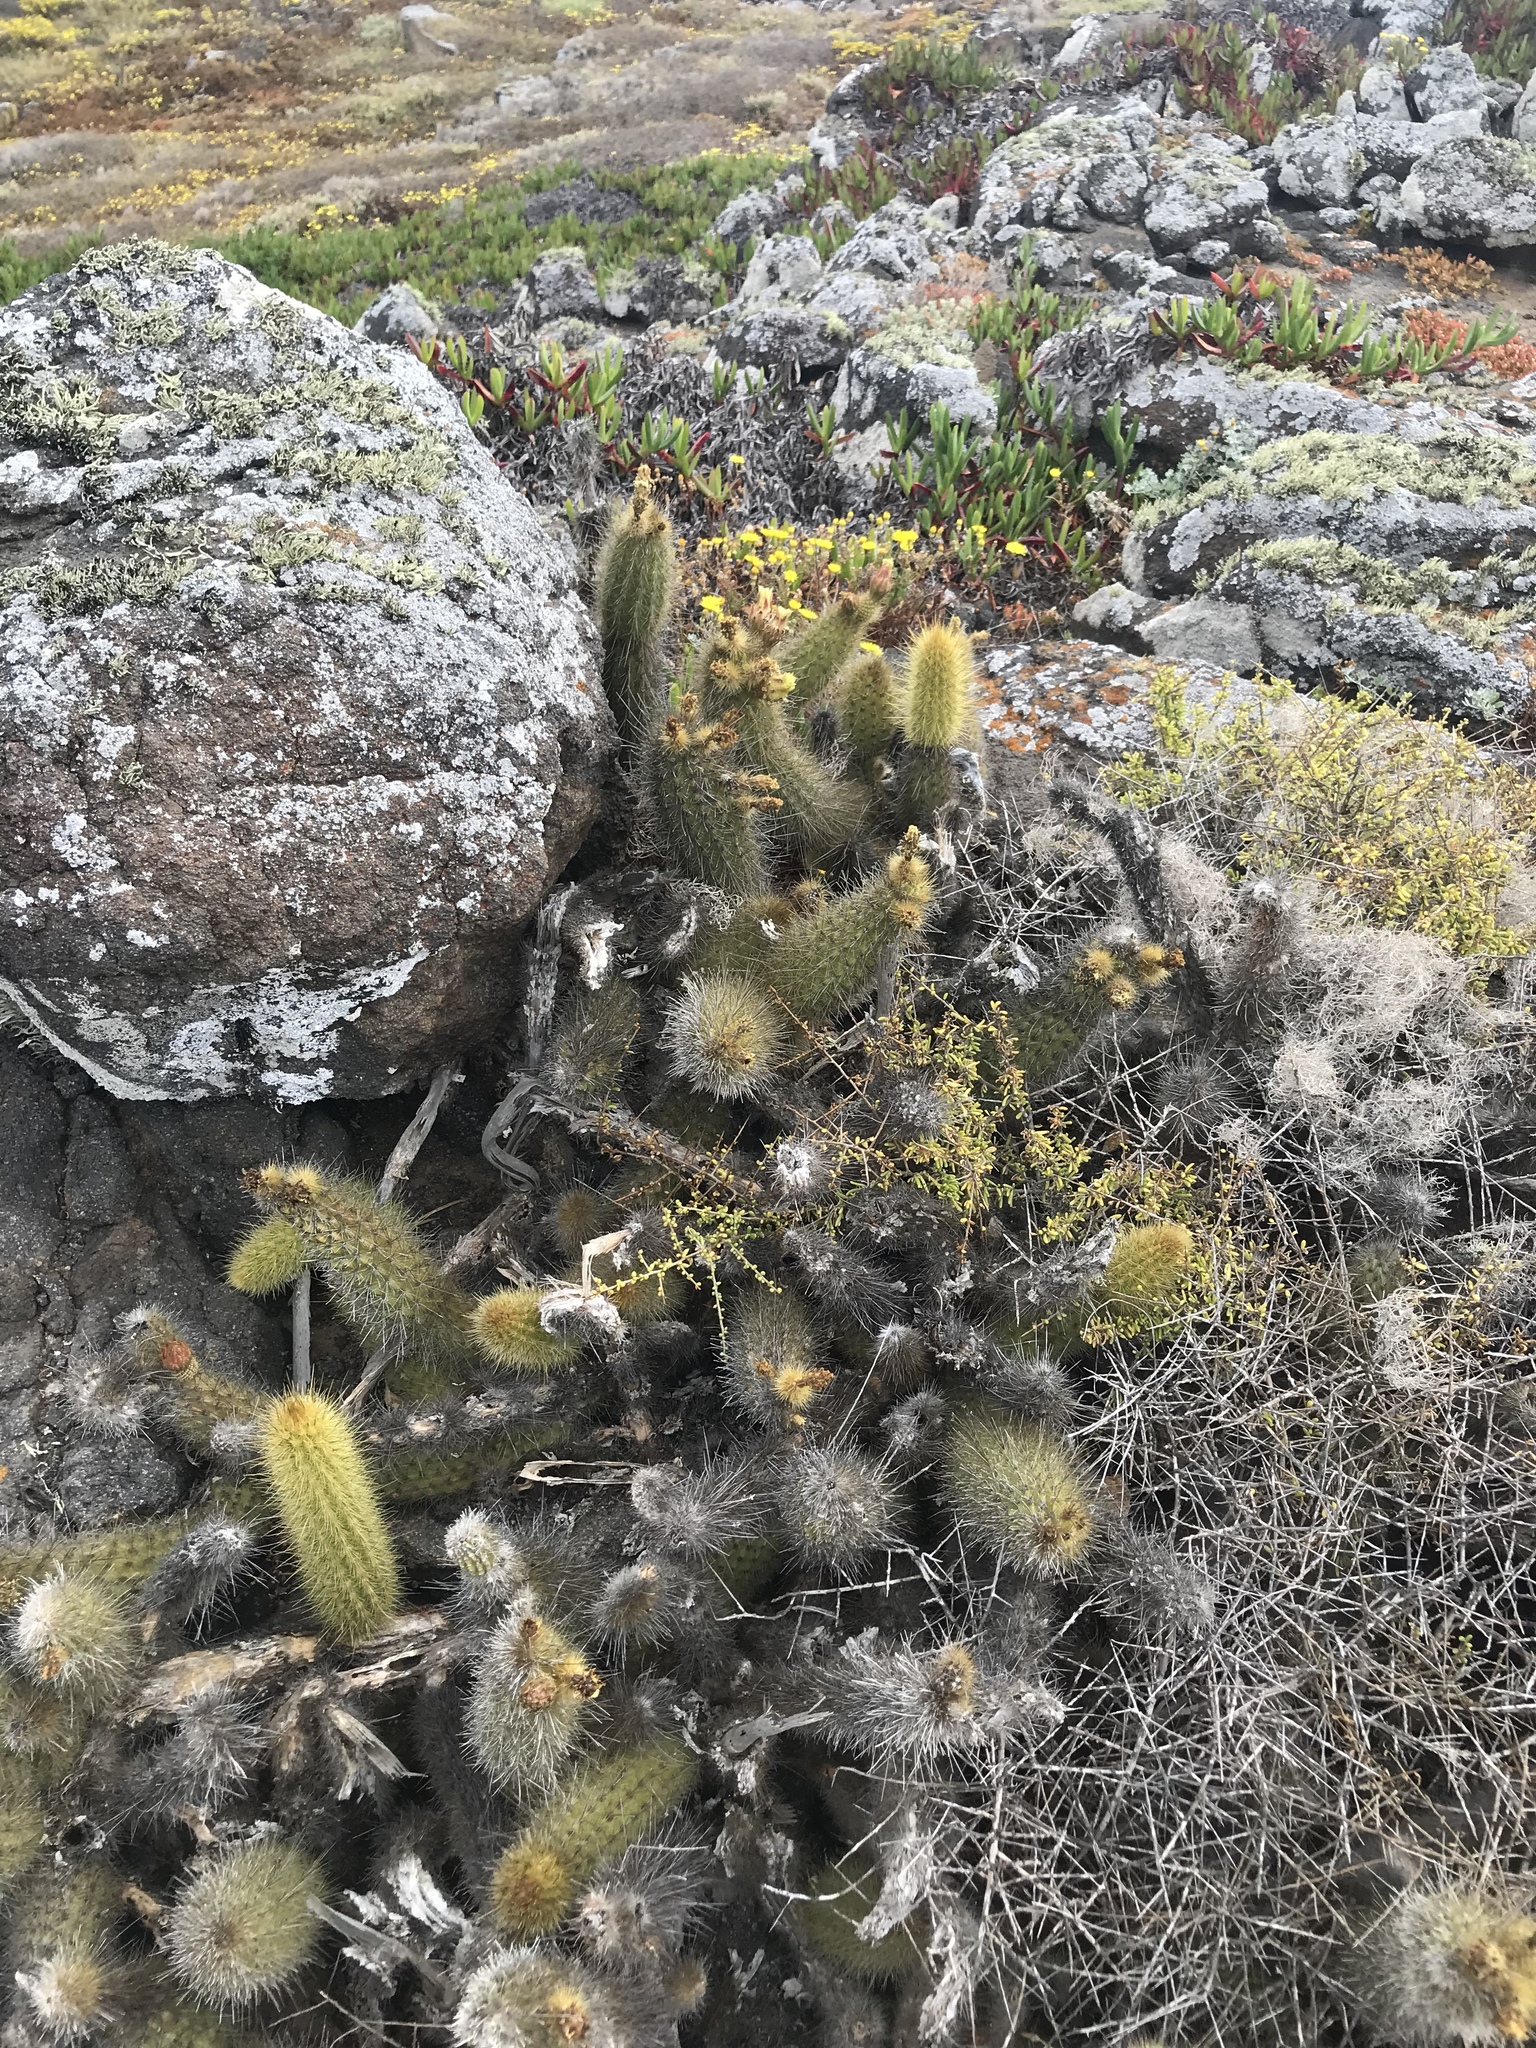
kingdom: Plantae
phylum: Tracheophyta
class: Magnoliopsida
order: Caryophyllales
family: Cactaceae
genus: Bergerocactus
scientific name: Bergerocactus emoryi
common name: Golden snakecactus
